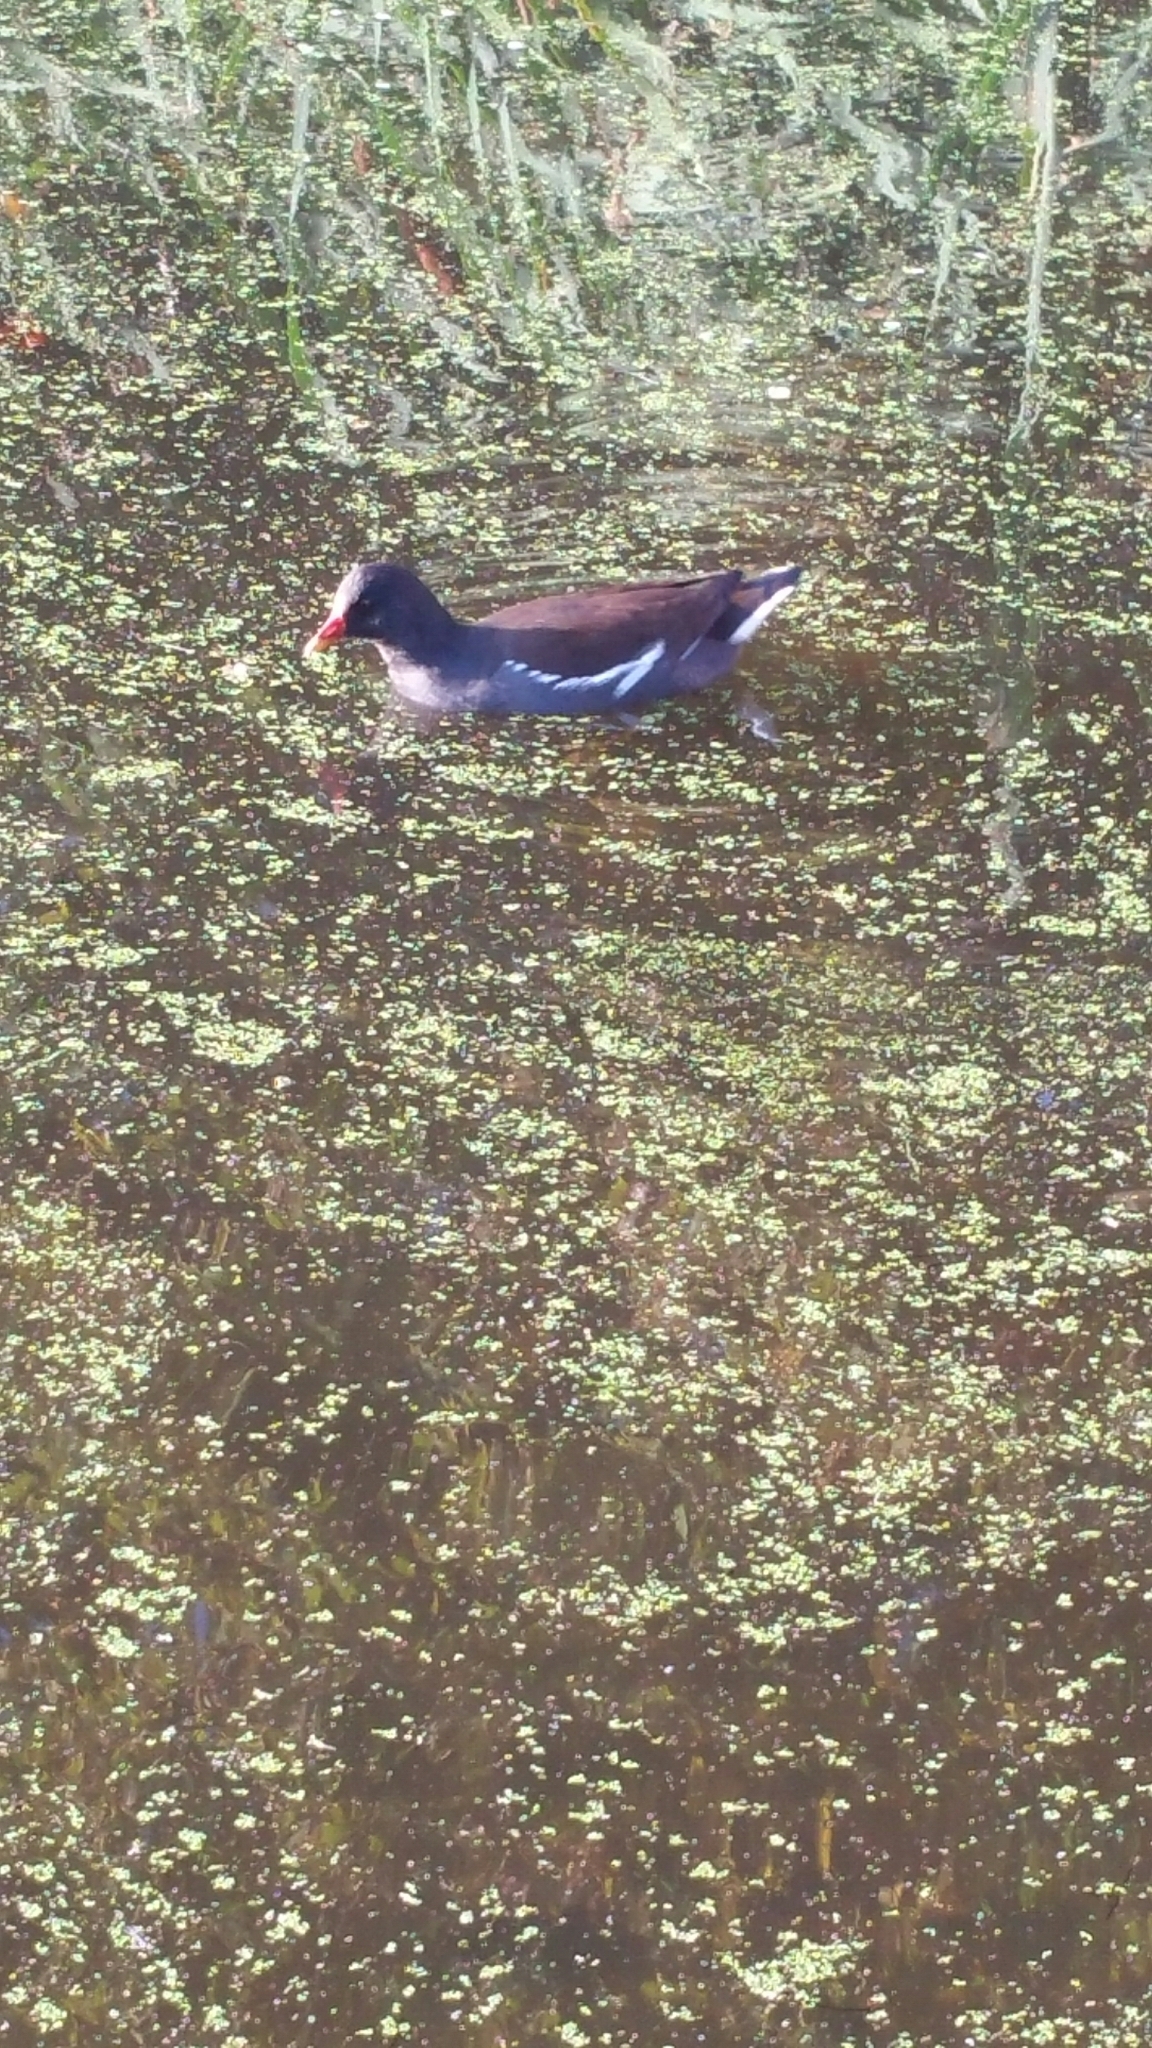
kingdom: Animalia
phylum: Chordata
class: Aves
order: Gruiformes
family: Rallidae
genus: Gallinula
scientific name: Gallinula chloropus
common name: Common moorhen
